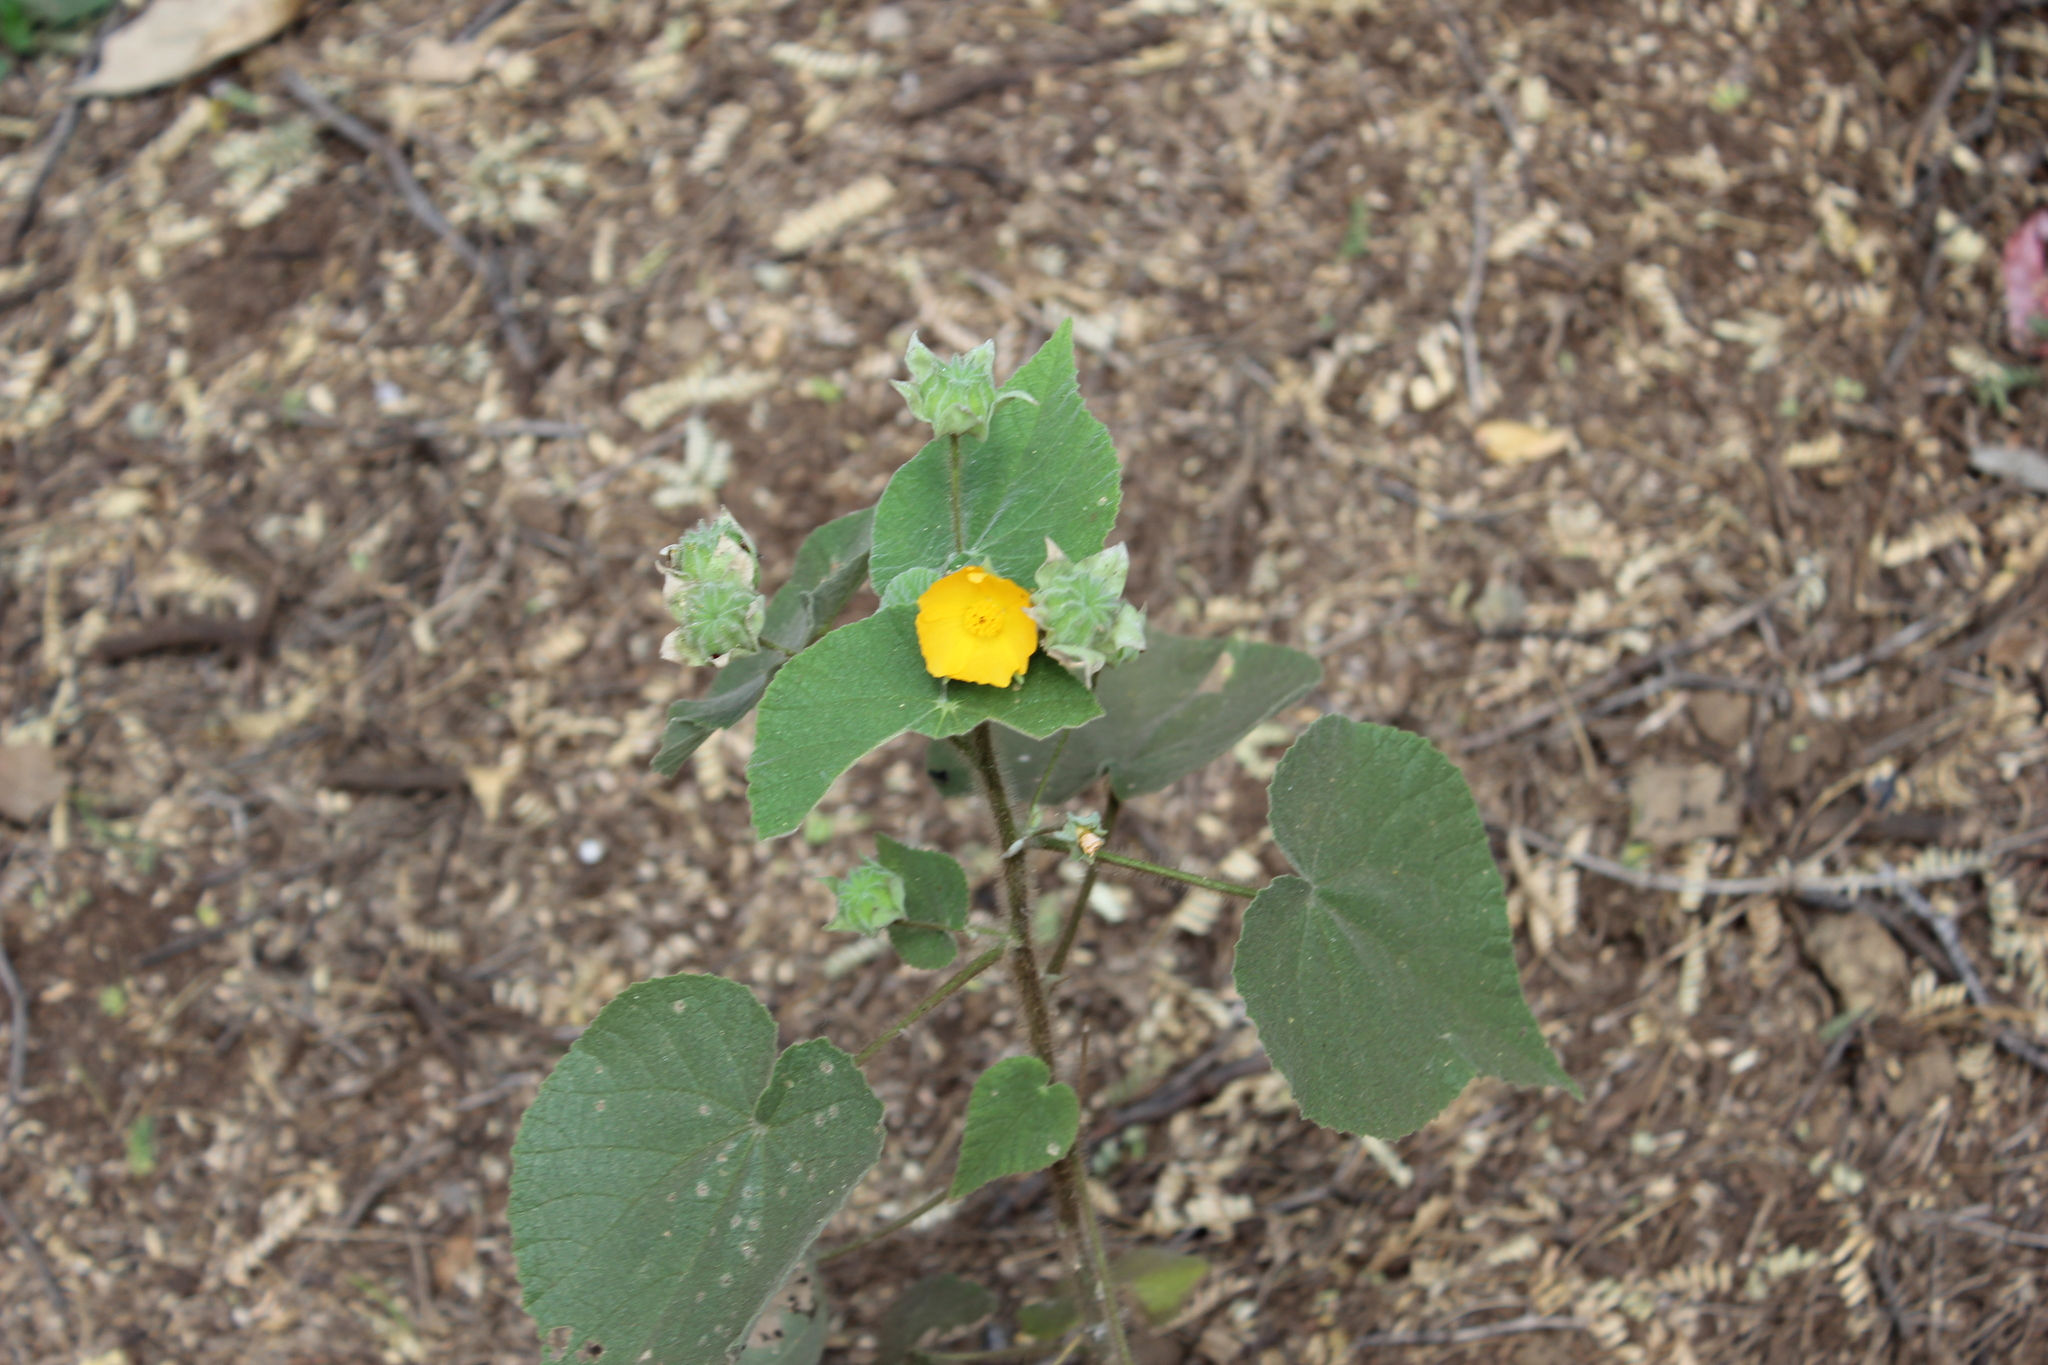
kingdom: Plantae
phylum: Tracheophyta
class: Magnoliopsida
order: Malvales
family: Malvaceae
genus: Abutilon
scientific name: Abutilon grandifolium
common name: Hairy abutilon
